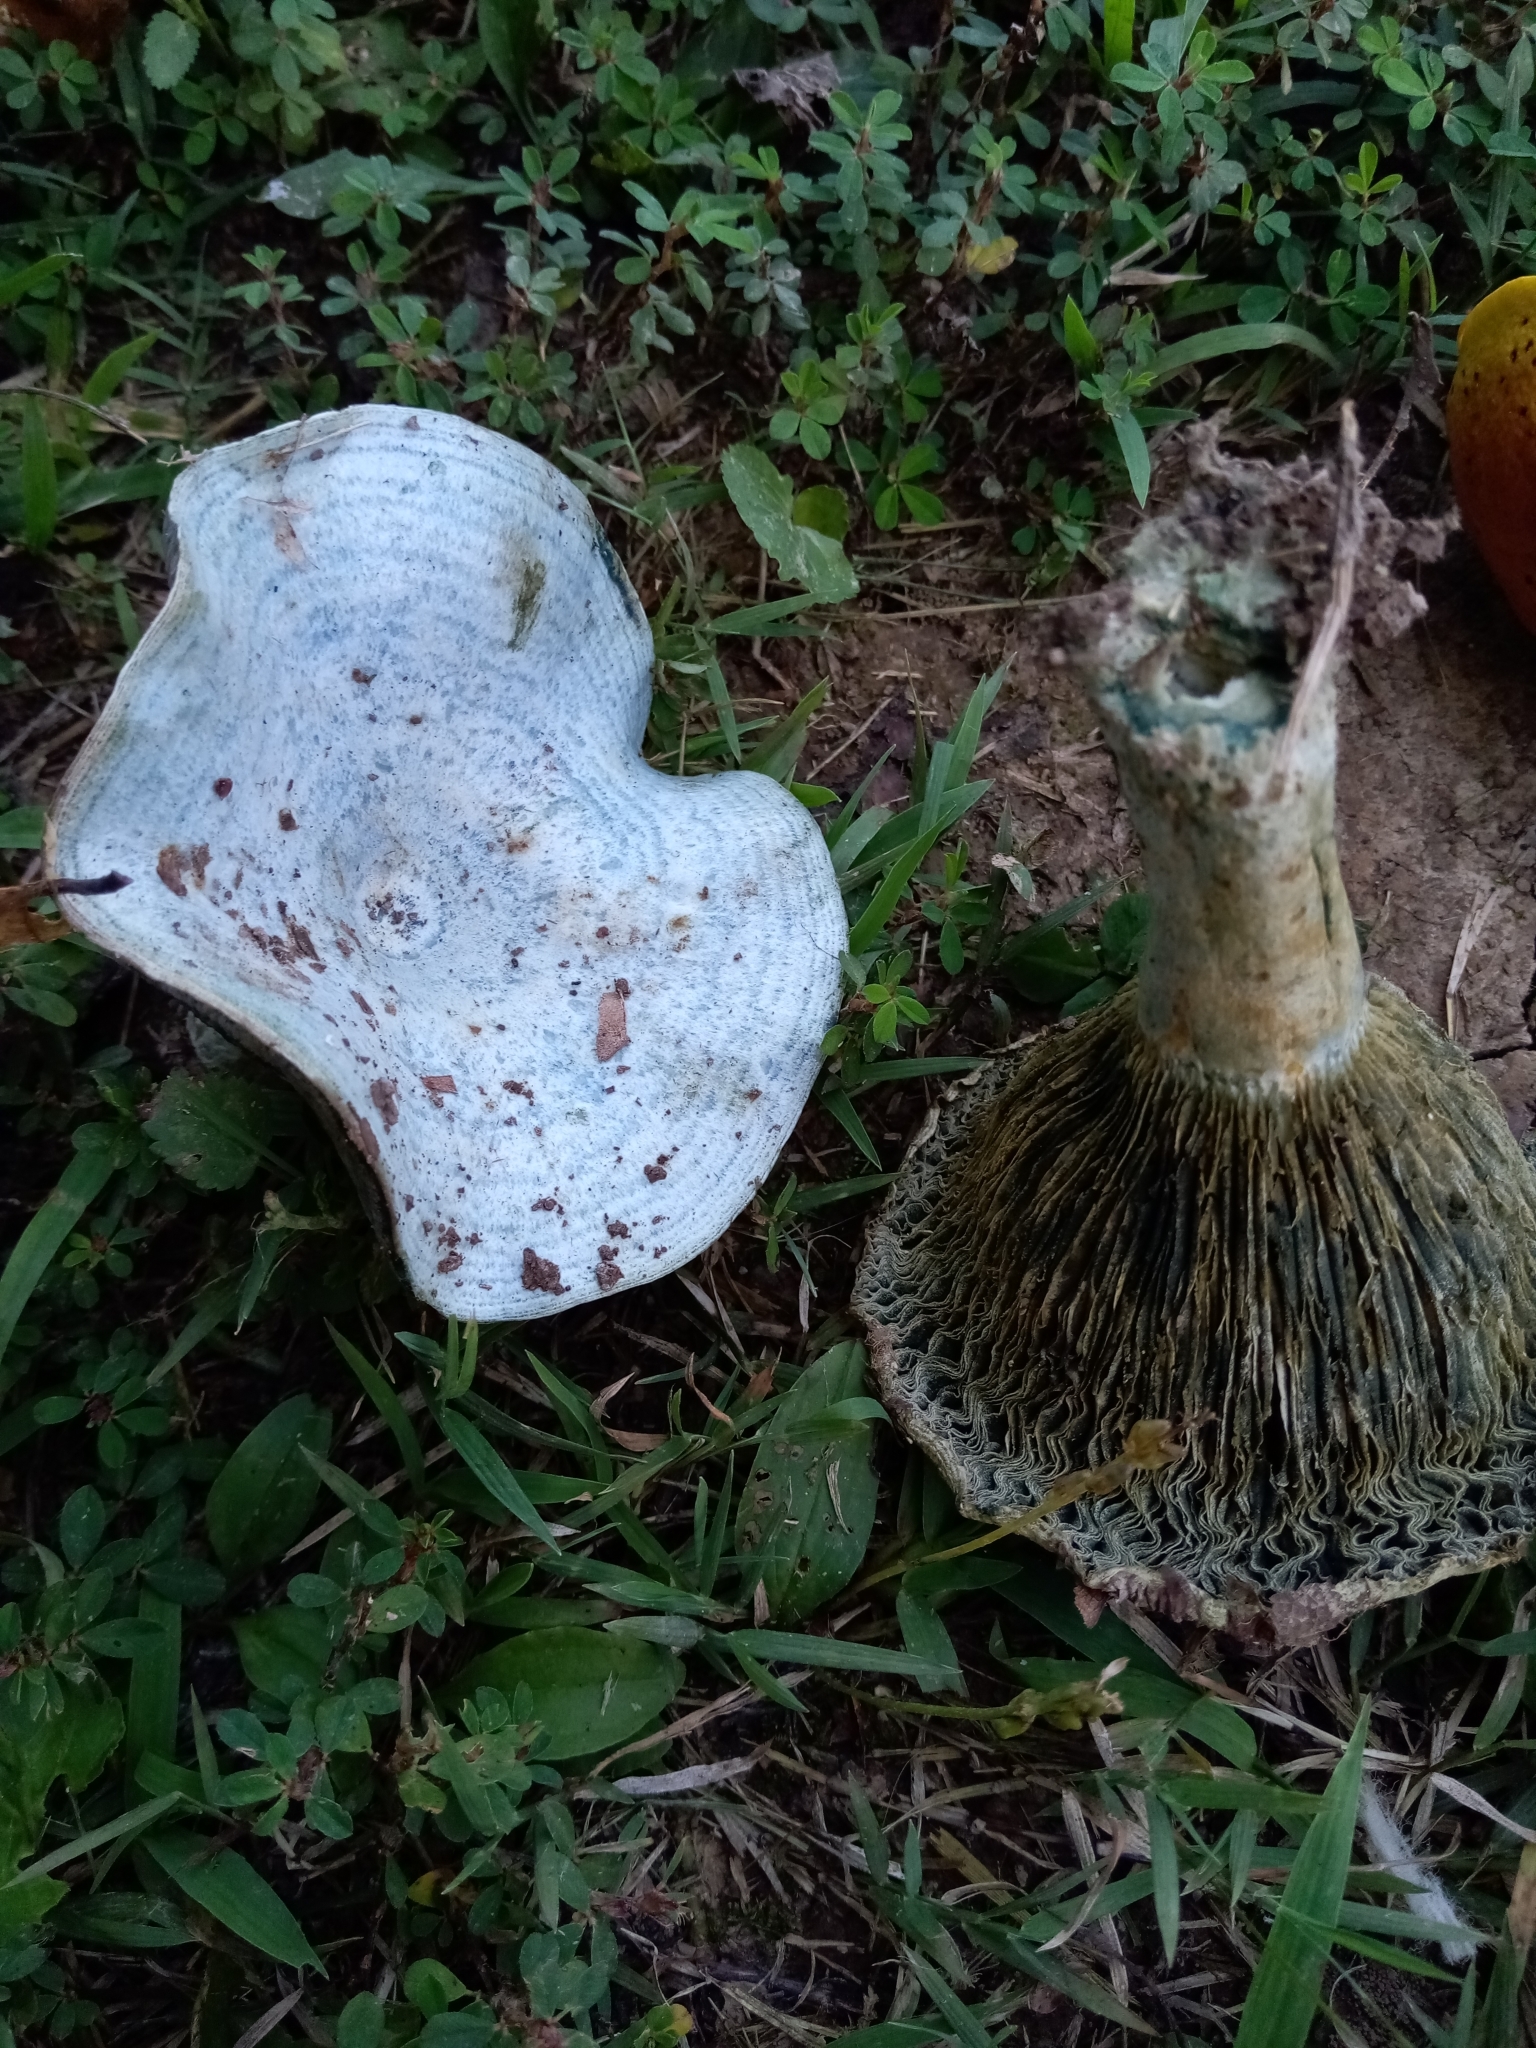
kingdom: Fungi
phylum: Basidiomycota
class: Agaricomycetes
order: Russulales
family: Russulaceae
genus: Lactarius
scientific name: Lactarius indigo
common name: Indigo milk cap
